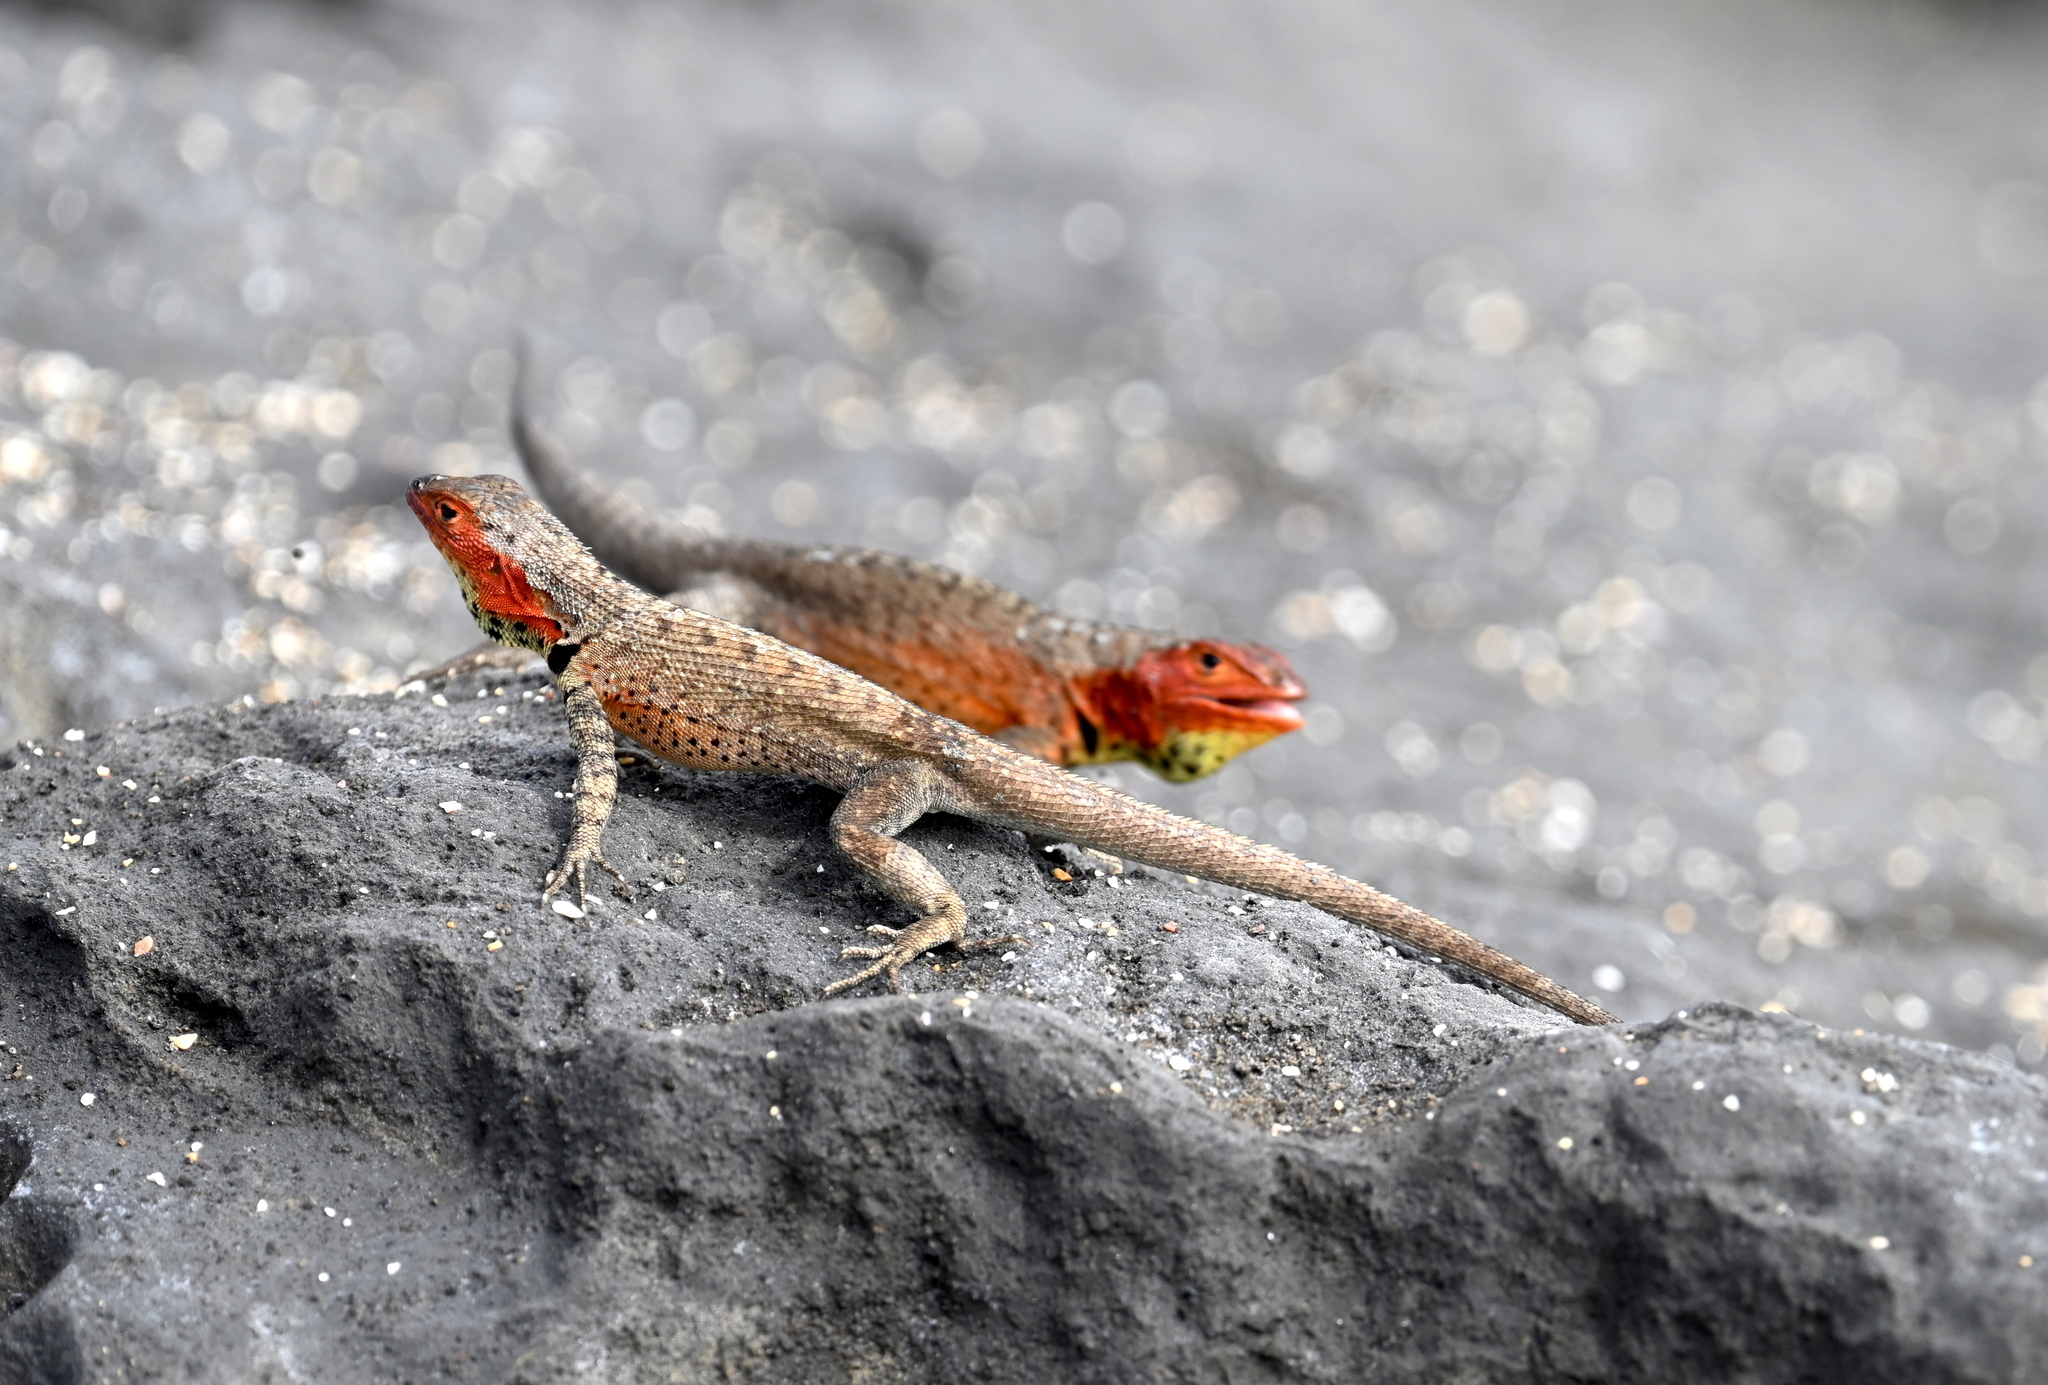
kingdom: Animalia
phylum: Chordata
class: Squamata
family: Tropiduridae
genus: Microlophus
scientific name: Microlophus jacobii
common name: Santiago lava lizard
